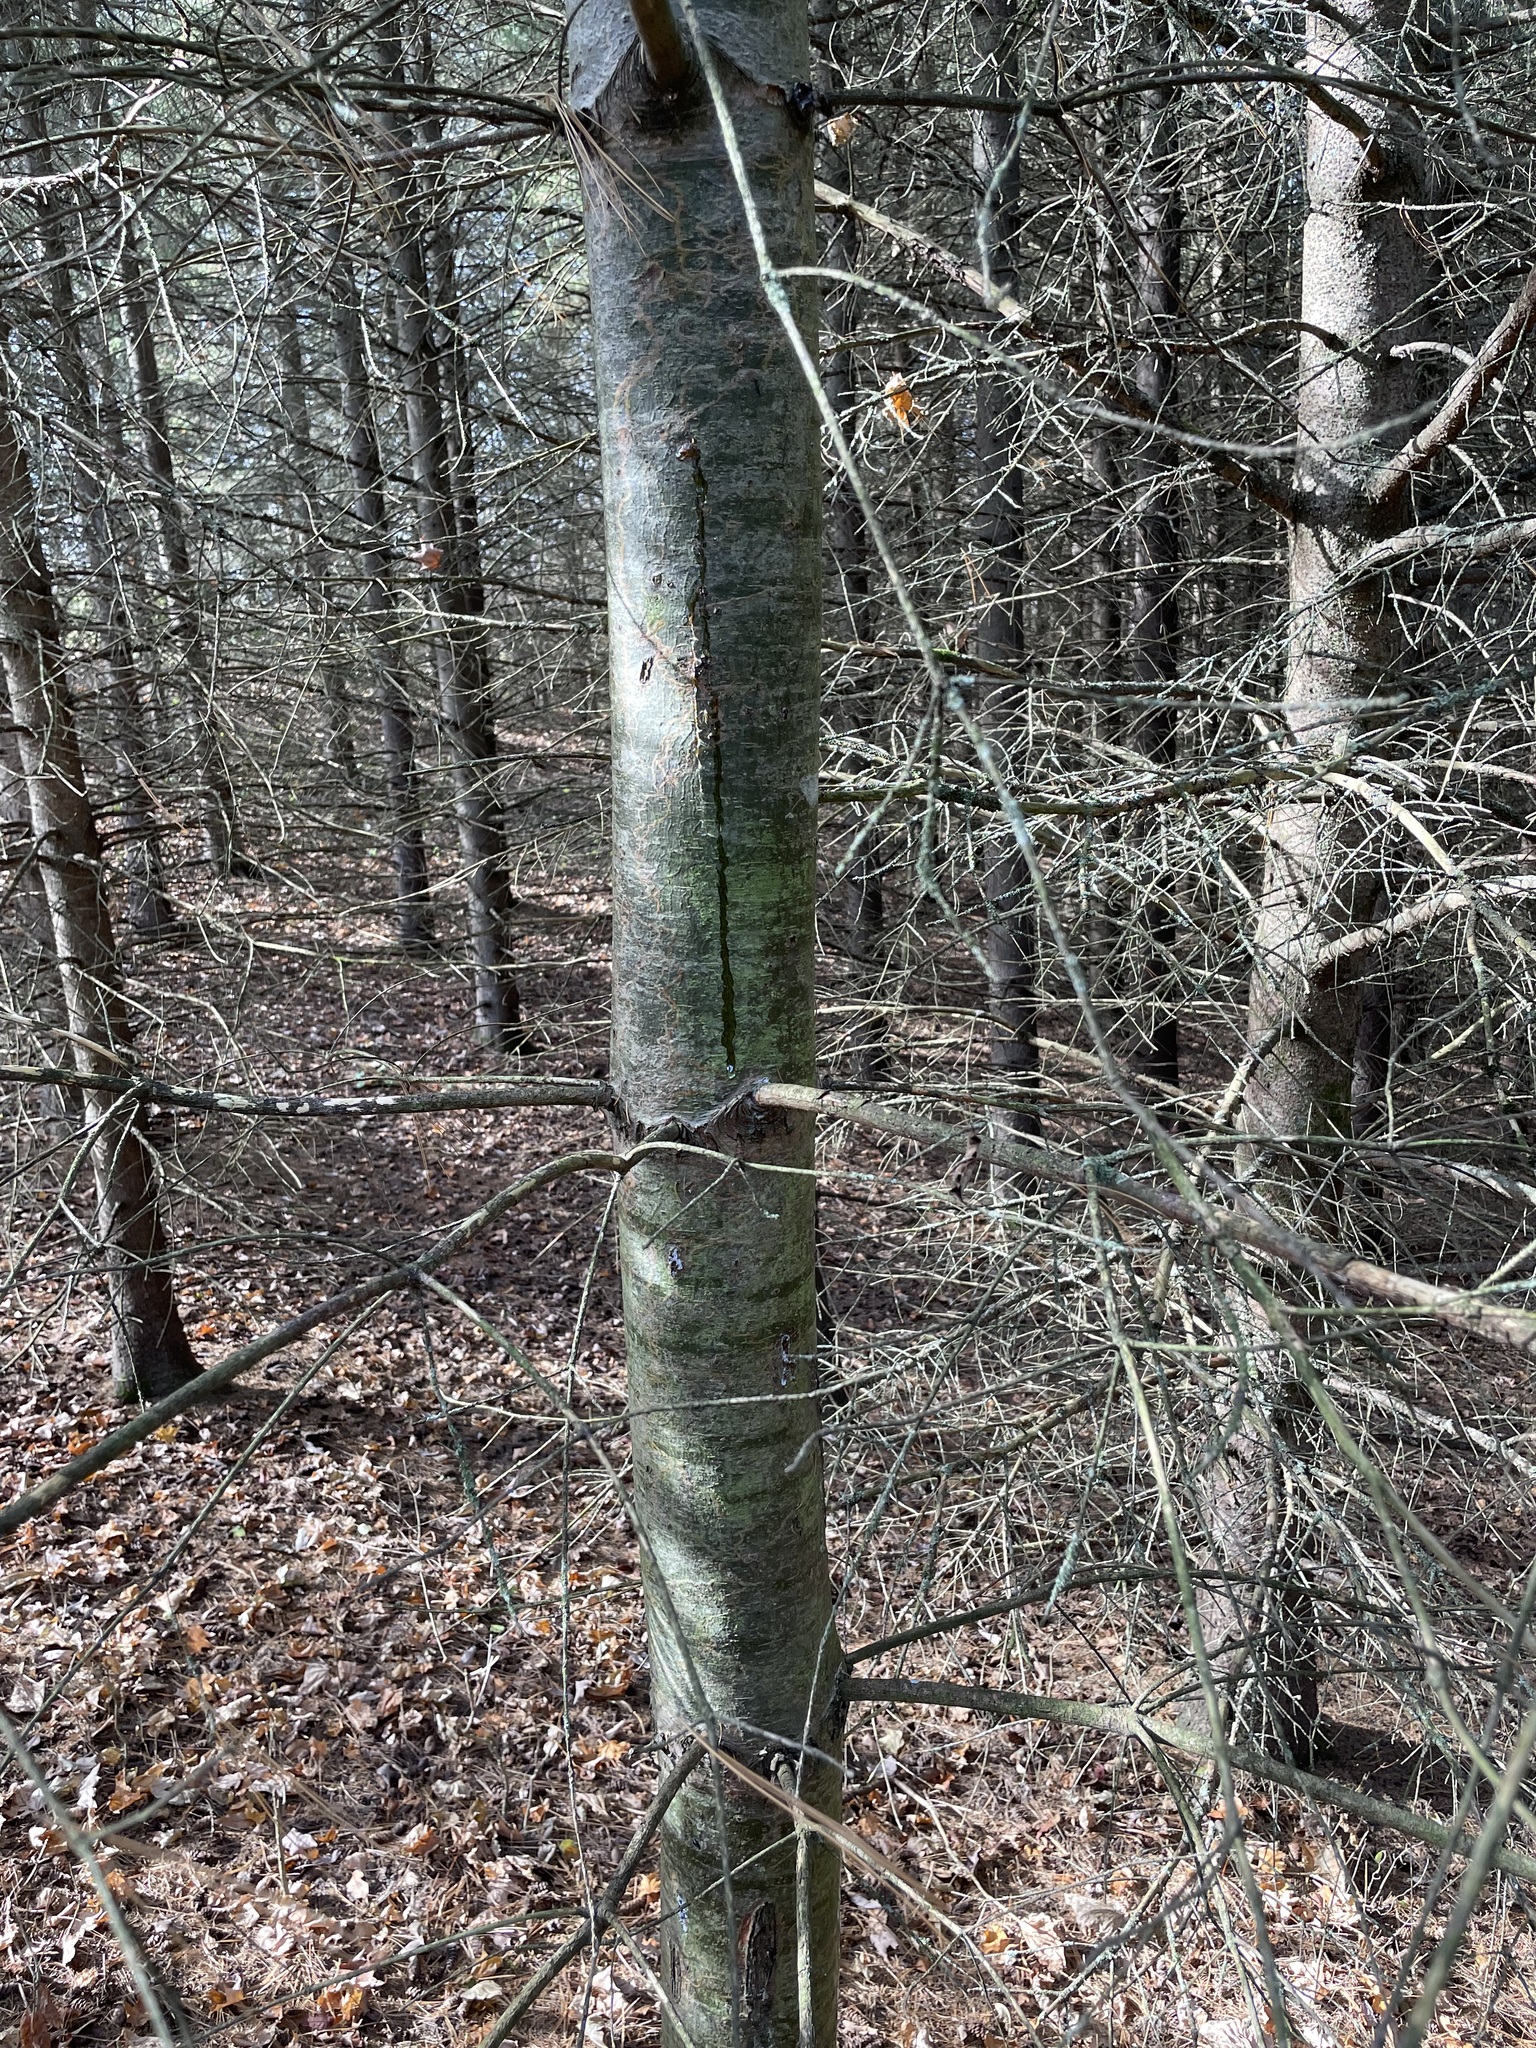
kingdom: Plantae
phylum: Tracheophyta
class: Pinopsida
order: Pinales
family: Pinaceae
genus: Pinus
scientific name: Pinus strobus
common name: Weymouth pine
